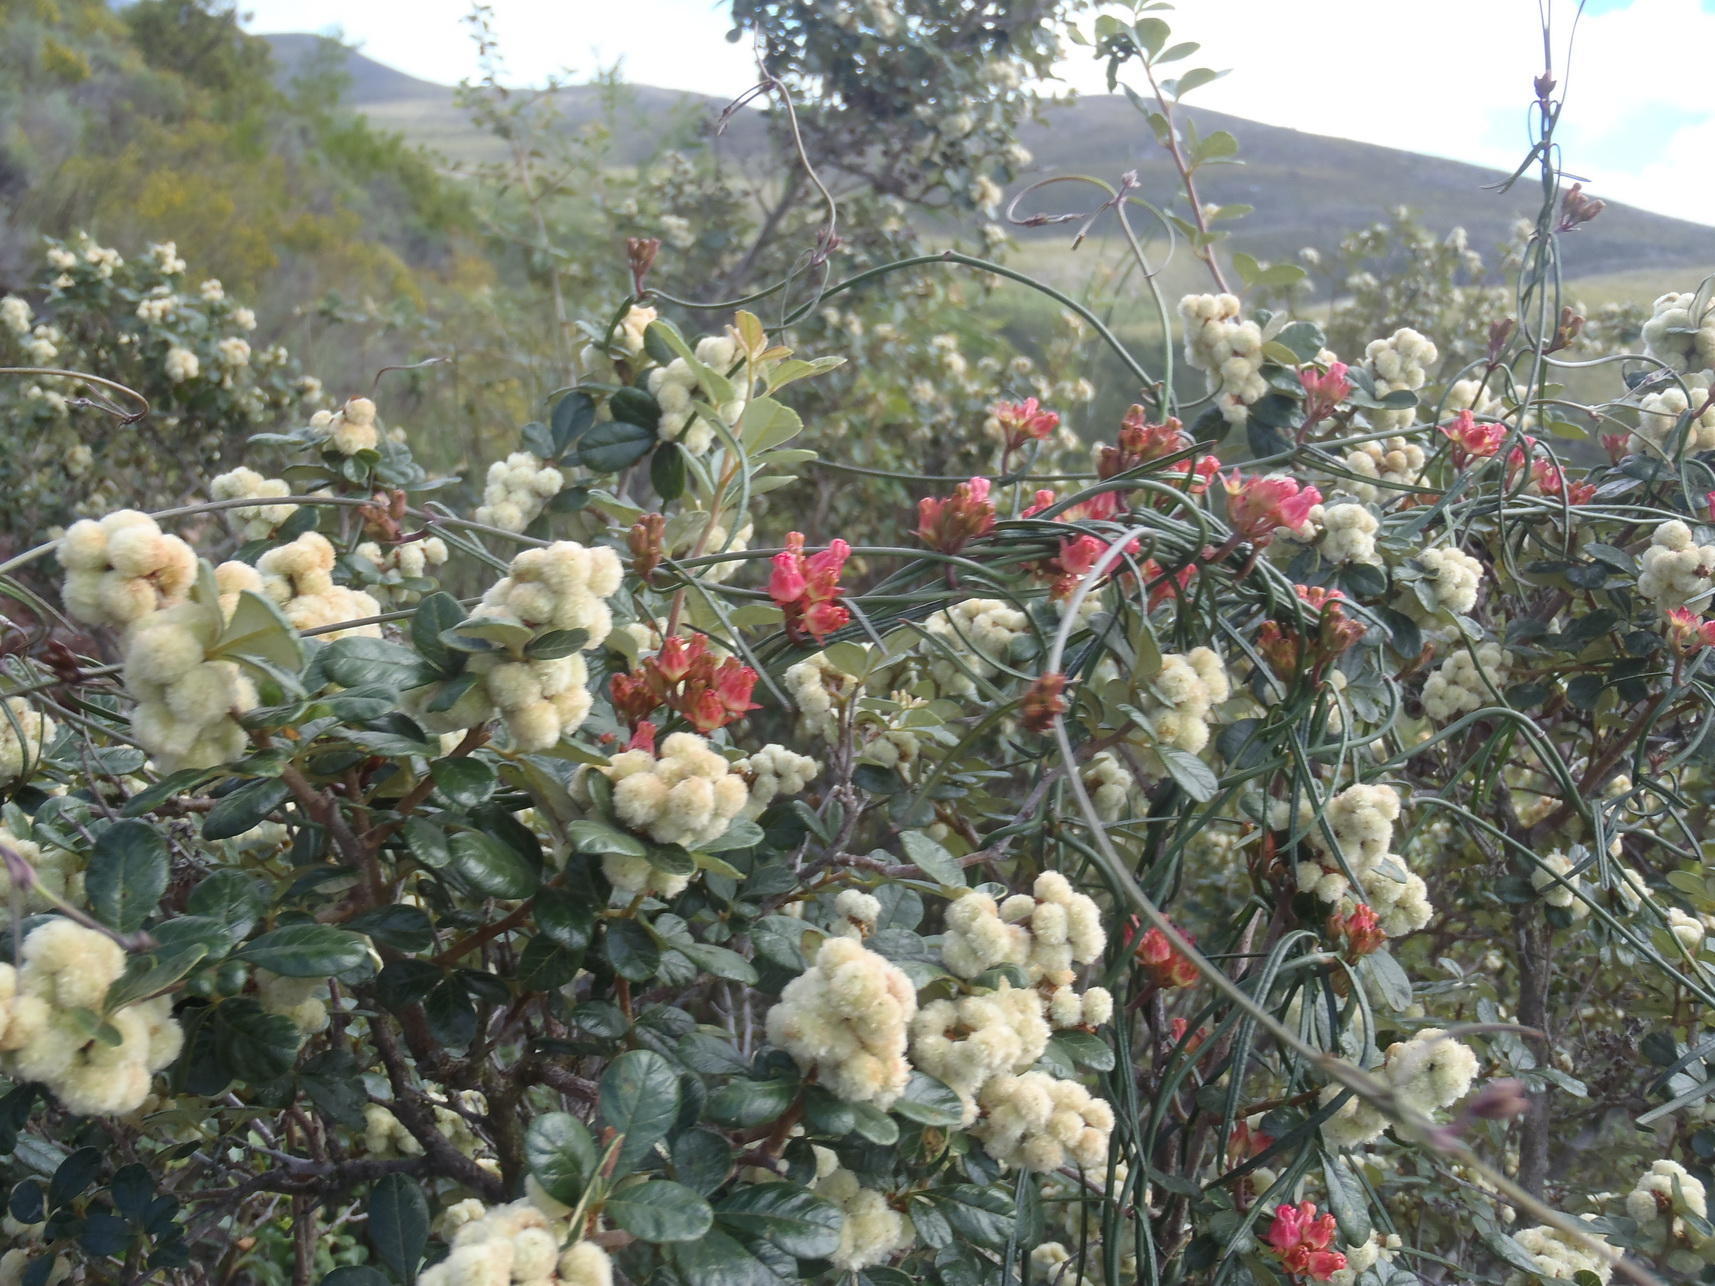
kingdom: Plantae
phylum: Tracheophyta
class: Magnoliopsida
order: Gentianales
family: Apocynaceae
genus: Microloma
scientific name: Microloma tenuifolium
